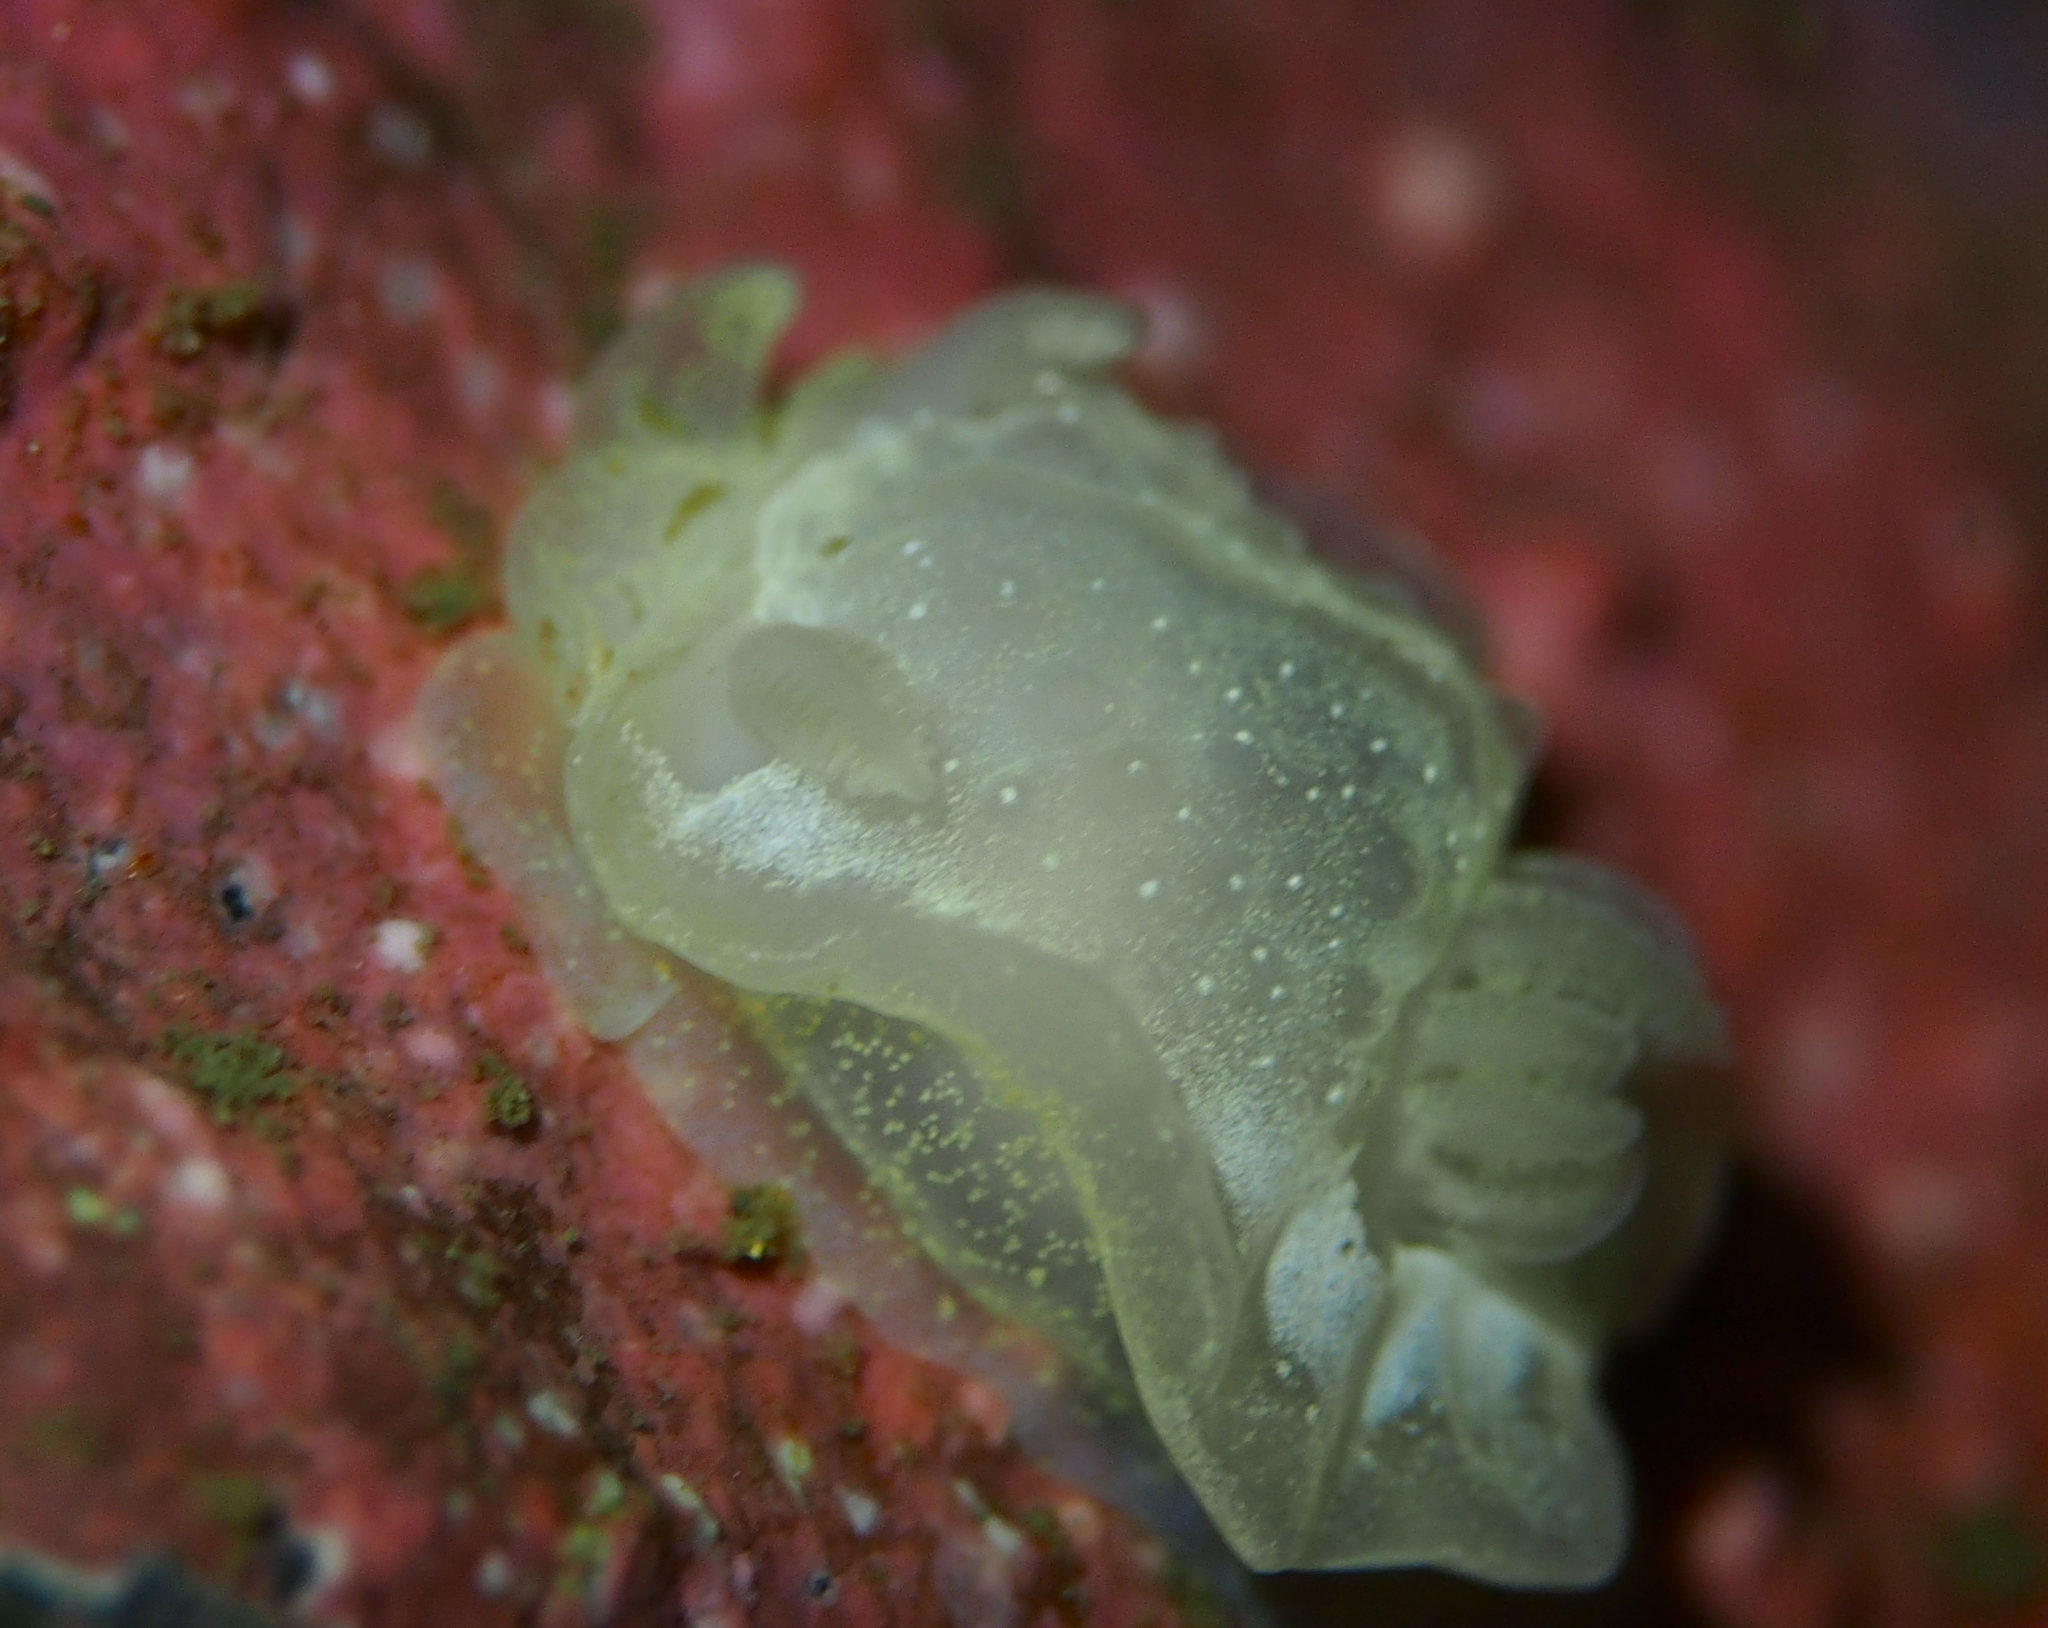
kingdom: Animalia
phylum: Mollusca
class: Gastropoda
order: Nudibranchia
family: Goniodorididae
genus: Okenia
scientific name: Okenia
